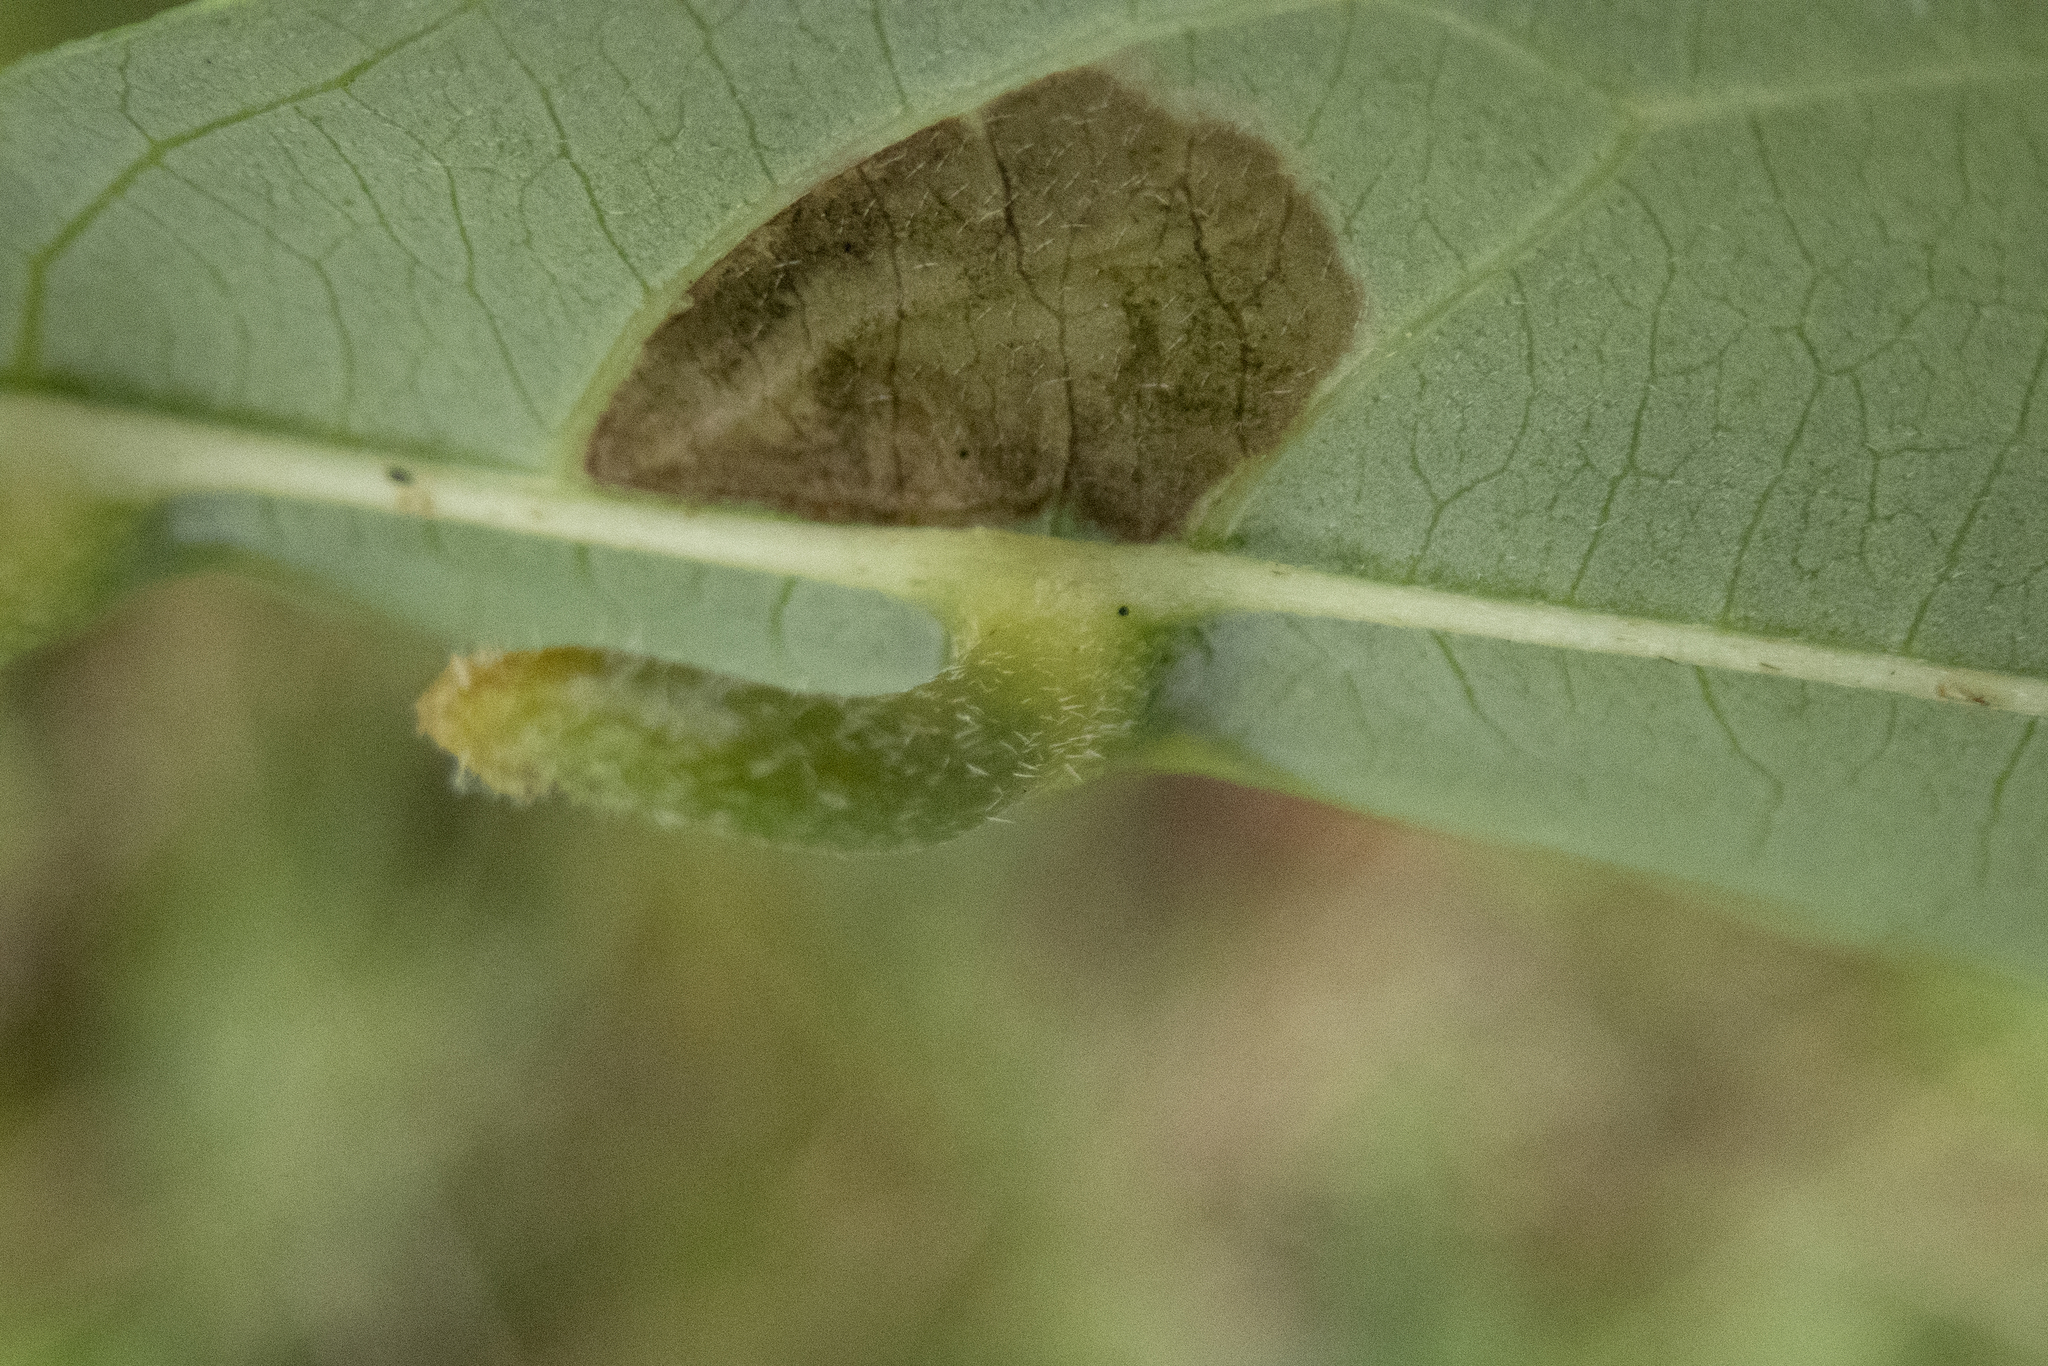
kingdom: Animalia
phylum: Arthropoda
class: Insecta
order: Diptera
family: Cecidomyiidae
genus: Dasineura
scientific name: Dasineura tuba
